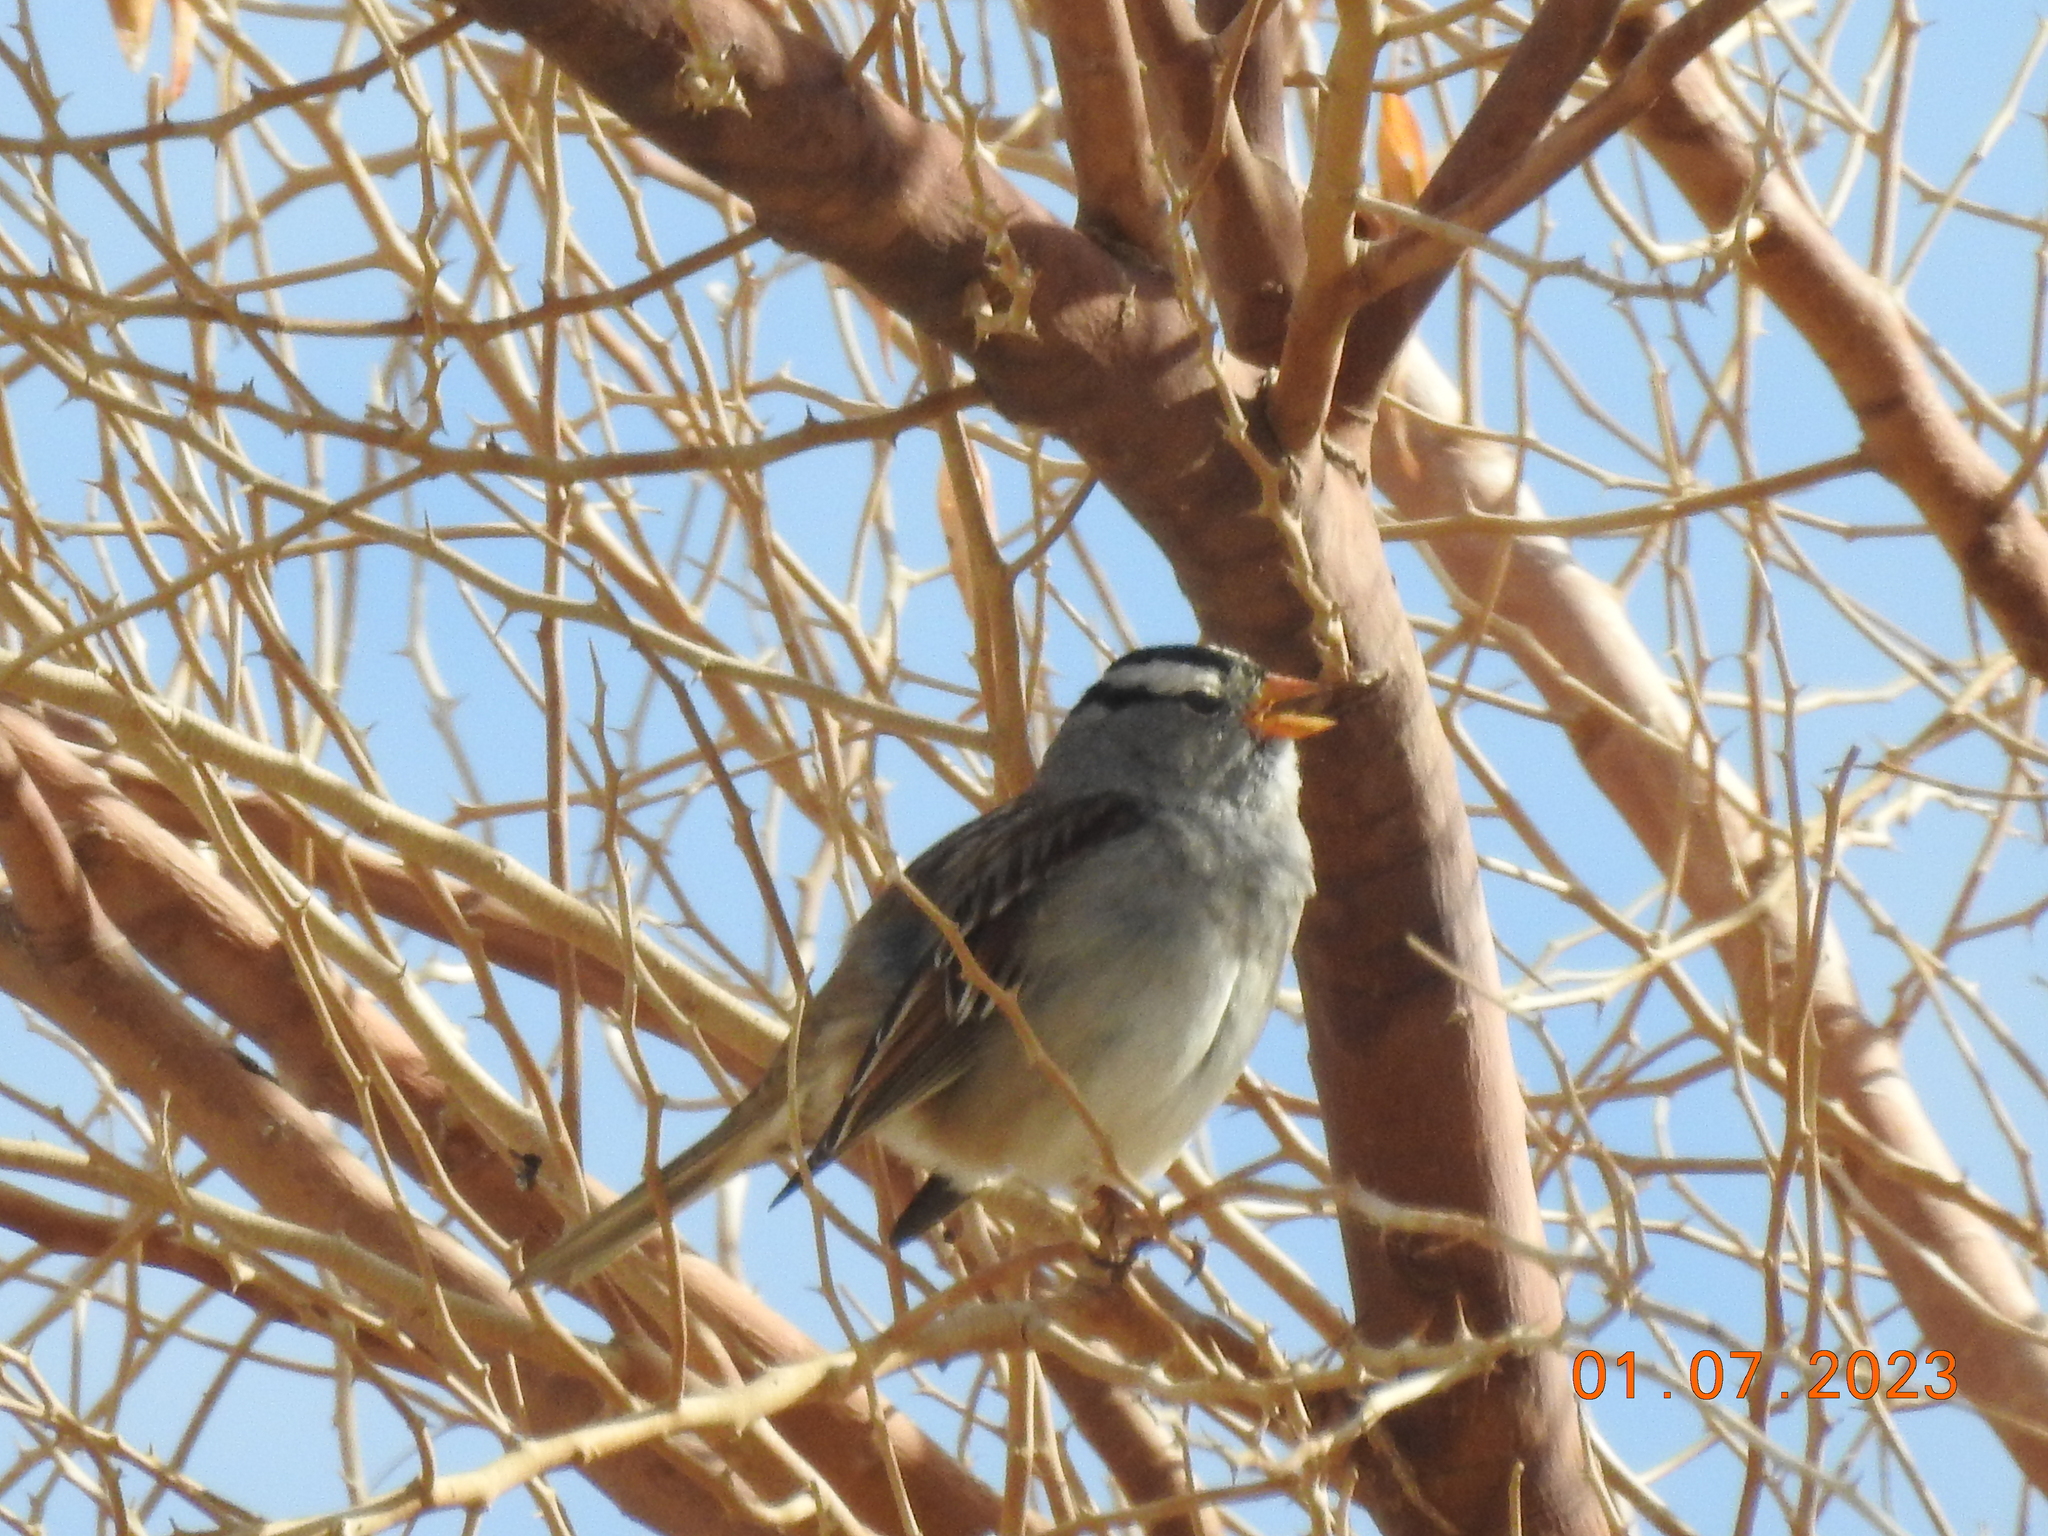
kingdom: Animalia
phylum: Chordata
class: Aves
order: Passeriformes
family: Passerellidae
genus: Zonotrichia
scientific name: Zonotrichia leucophrys
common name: White-crowned sparrow
